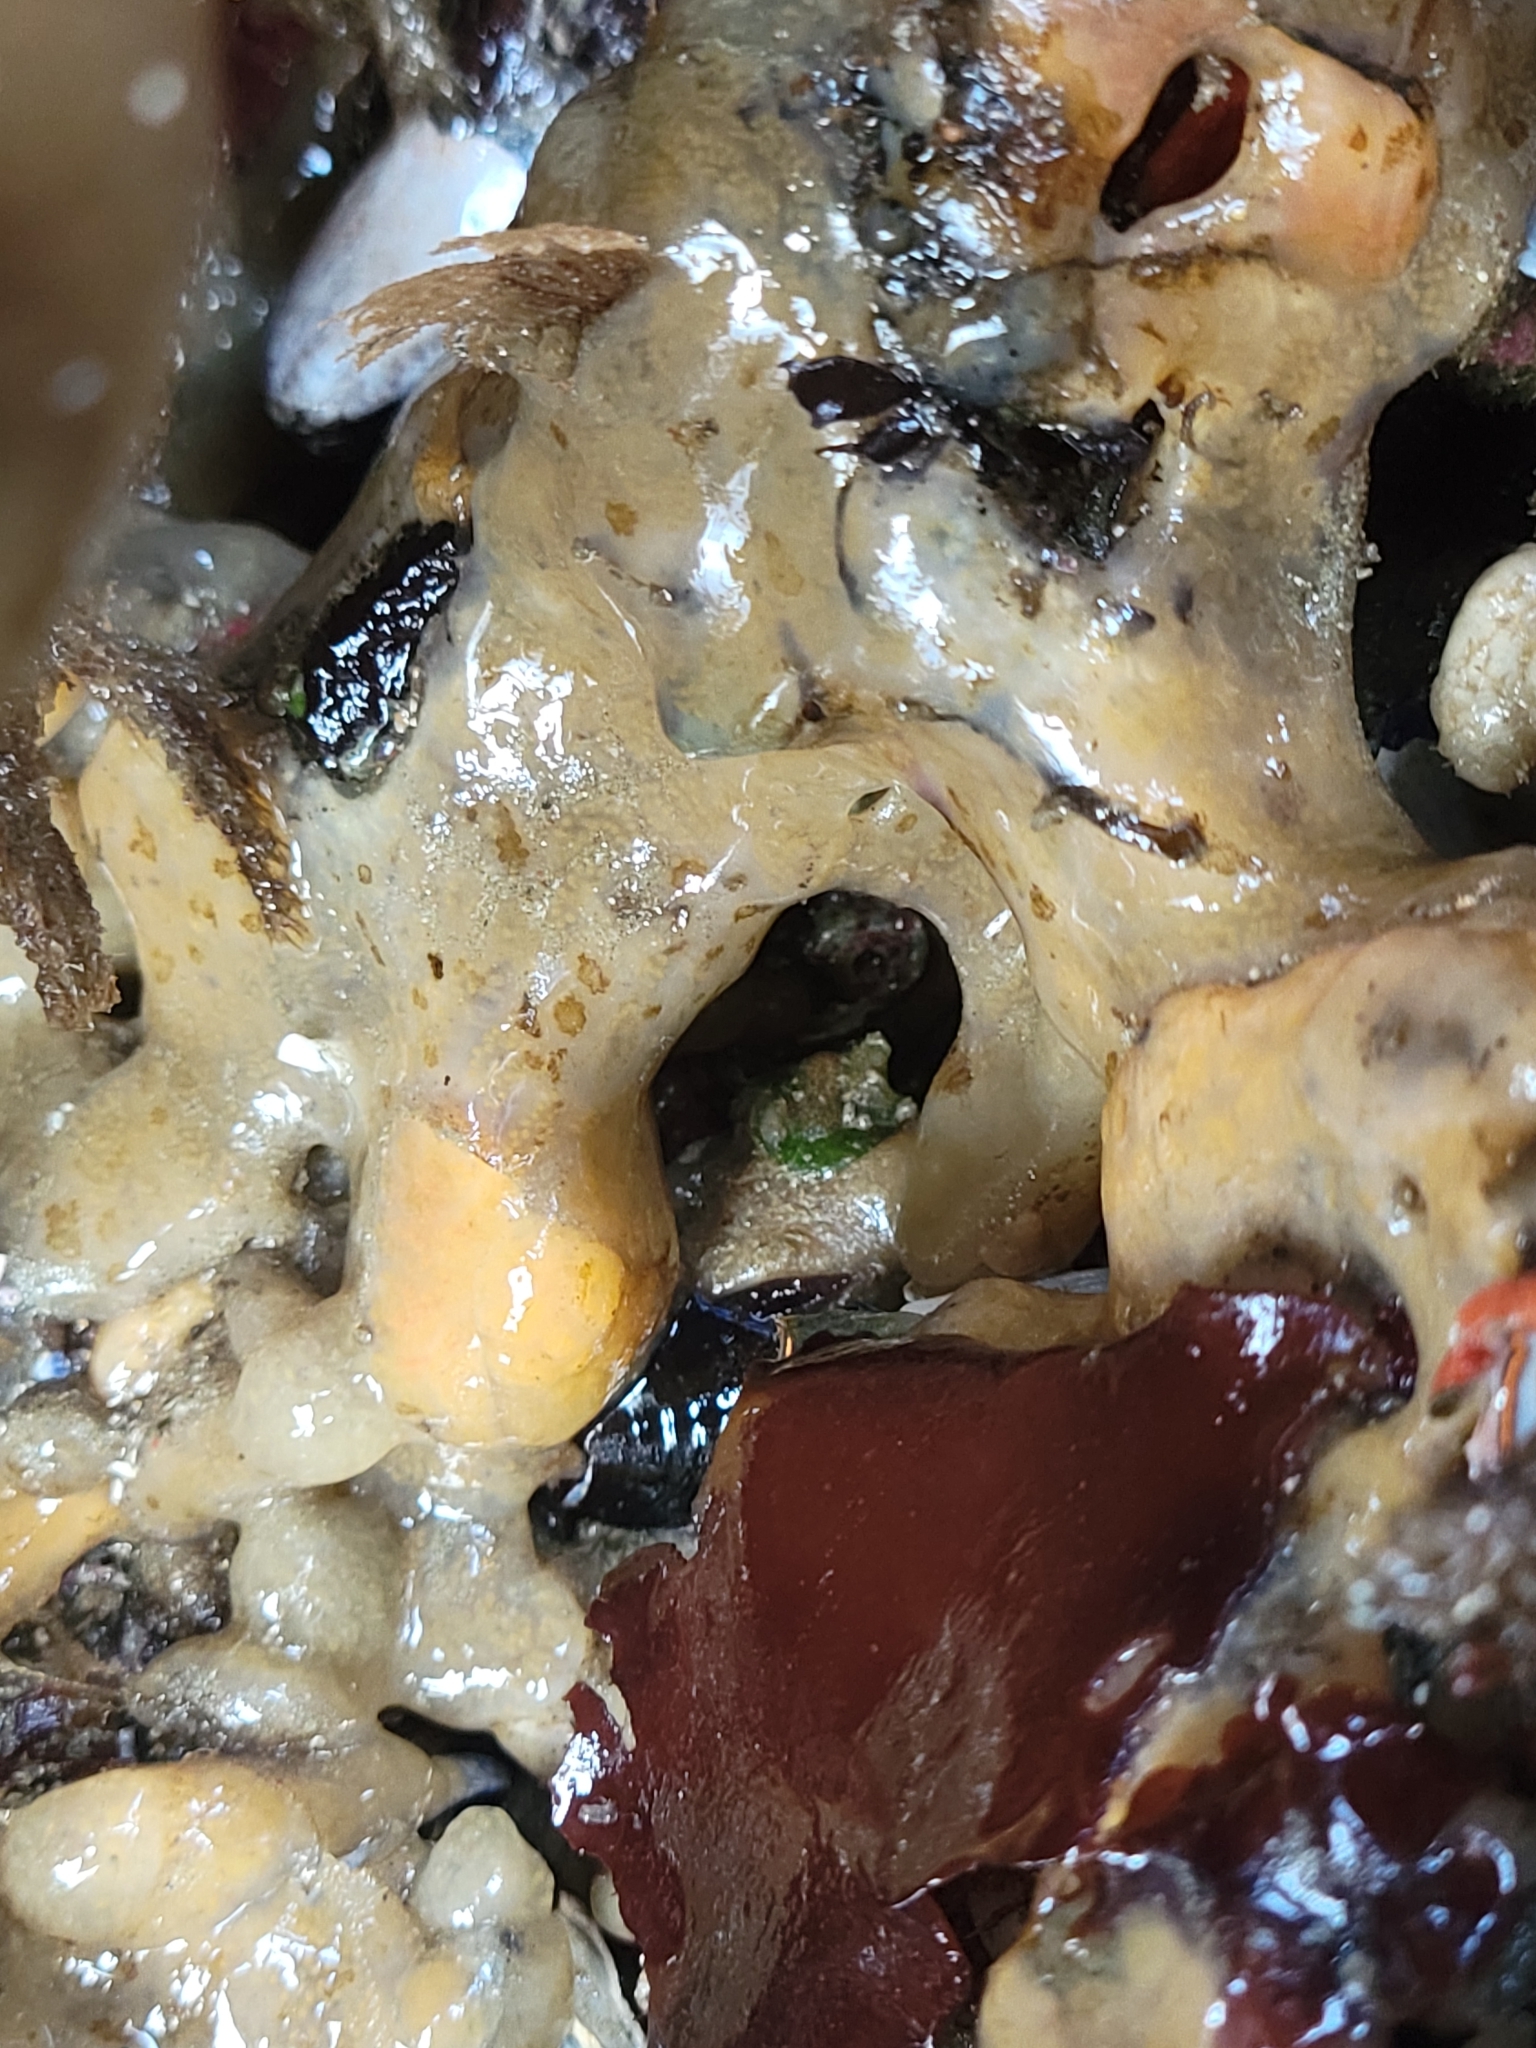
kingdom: Animalia
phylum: Chordata
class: Ascidiacea
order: Aplousobranchia
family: Polyclinidae
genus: Aplidium
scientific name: Aplidium californicum
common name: Sea pork
